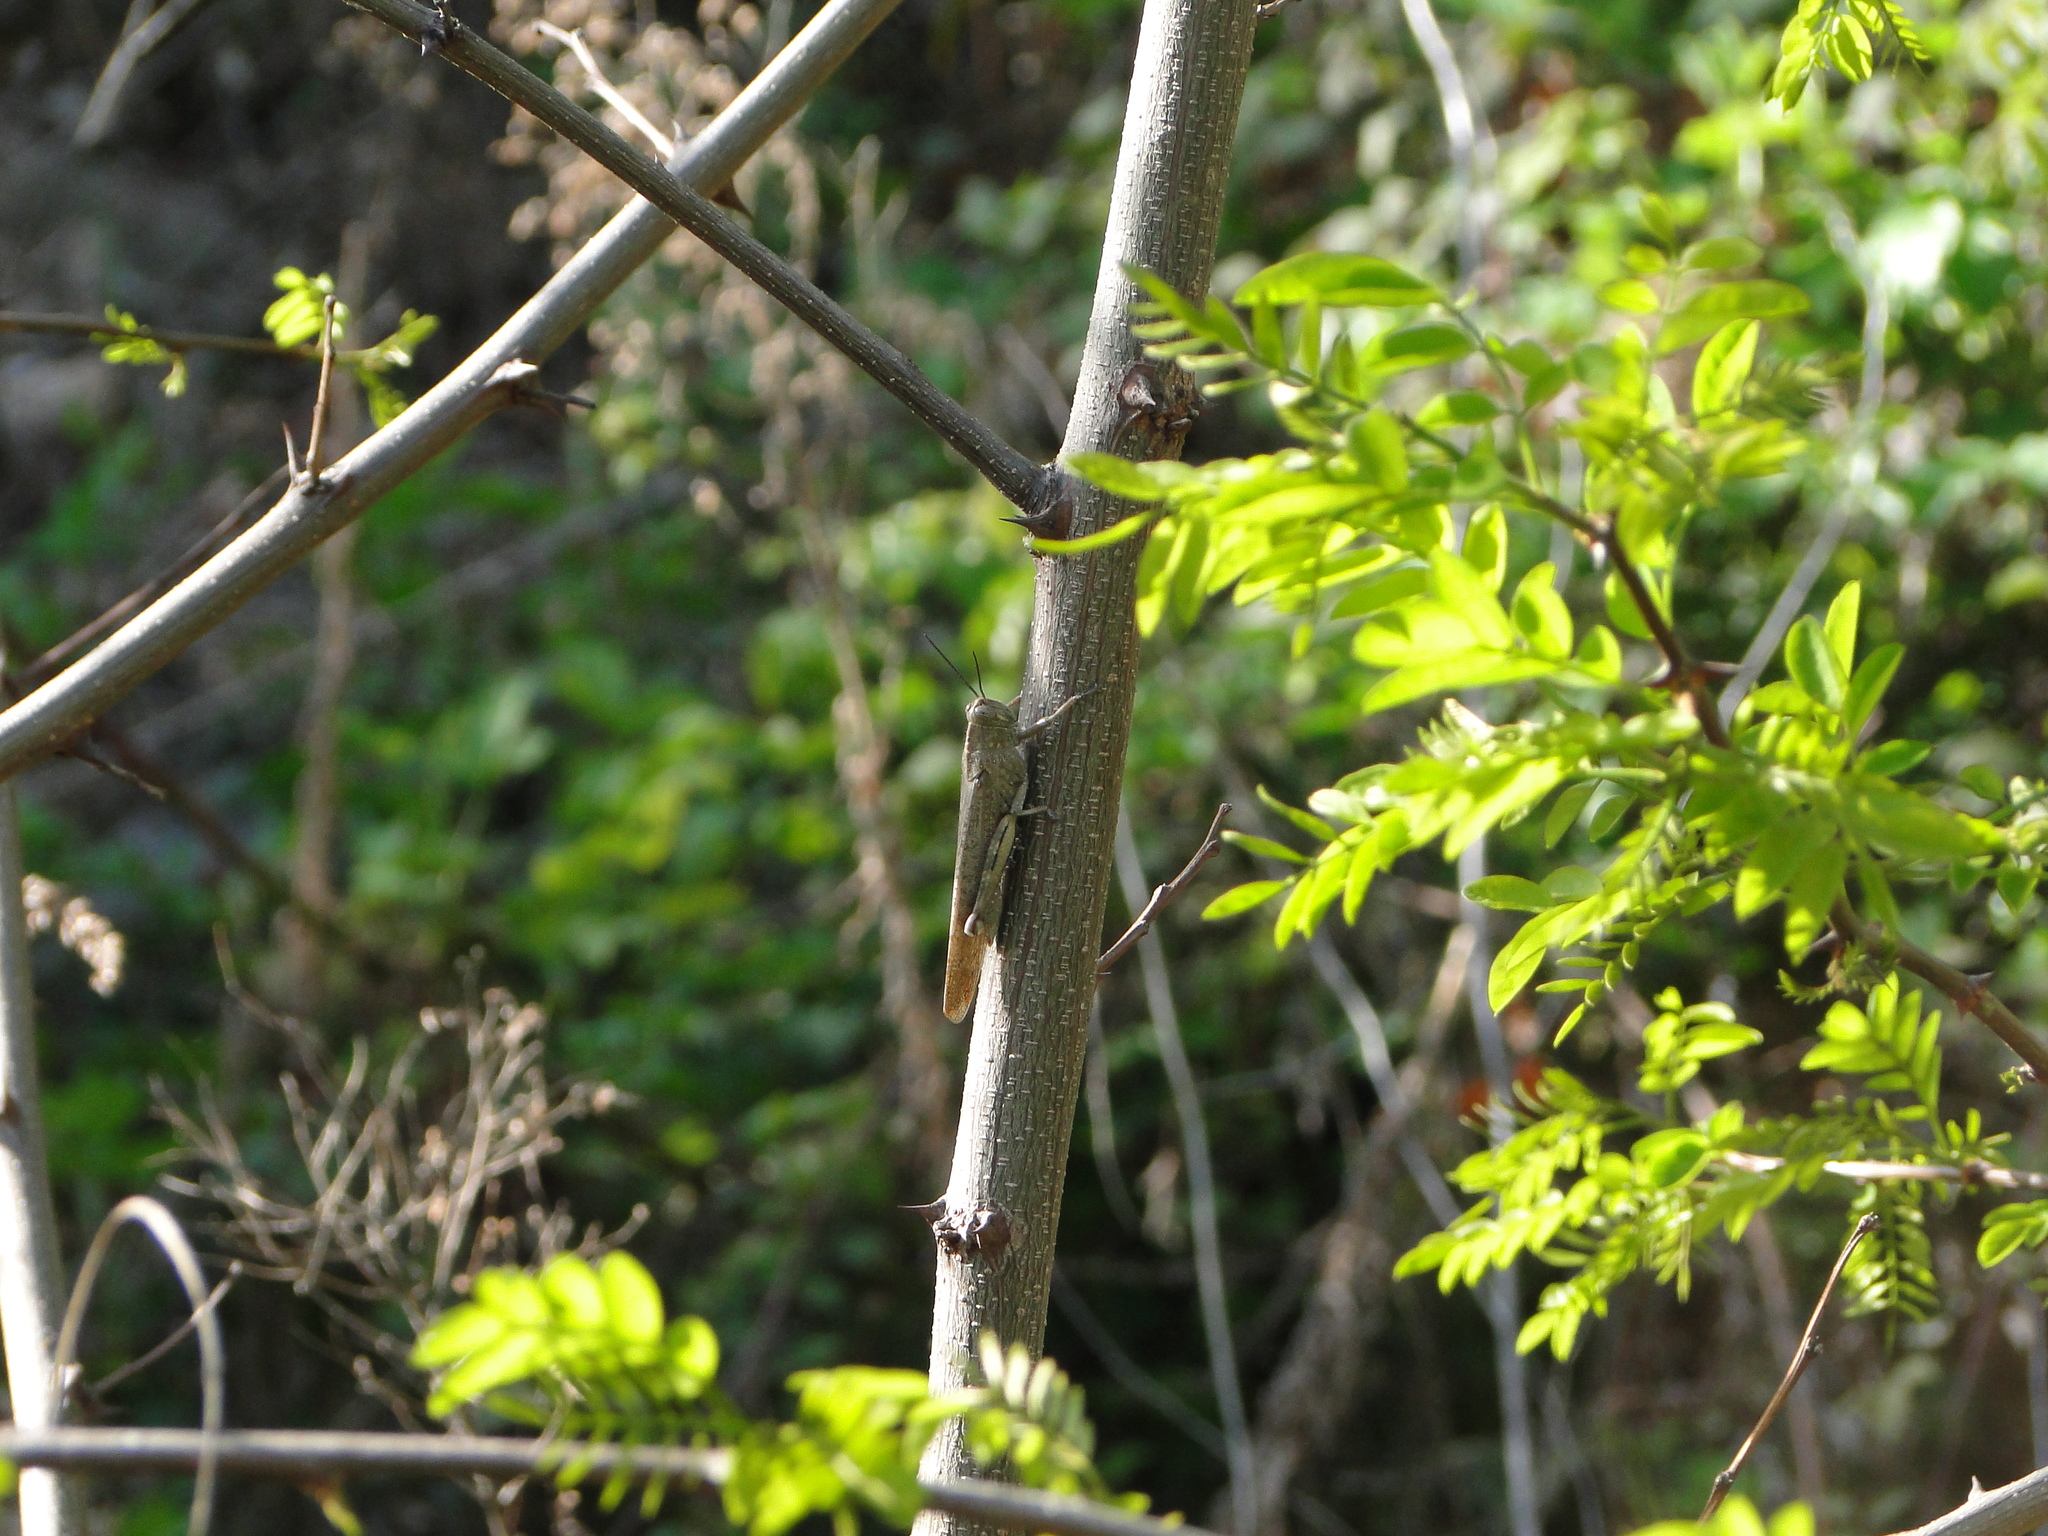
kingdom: Animalia
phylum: Arthropoda
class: Insecta
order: Orthoptera
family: Acrididae
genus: Anacridium
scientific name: Anacridium aegyptium
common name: Egyptian grasshopper
